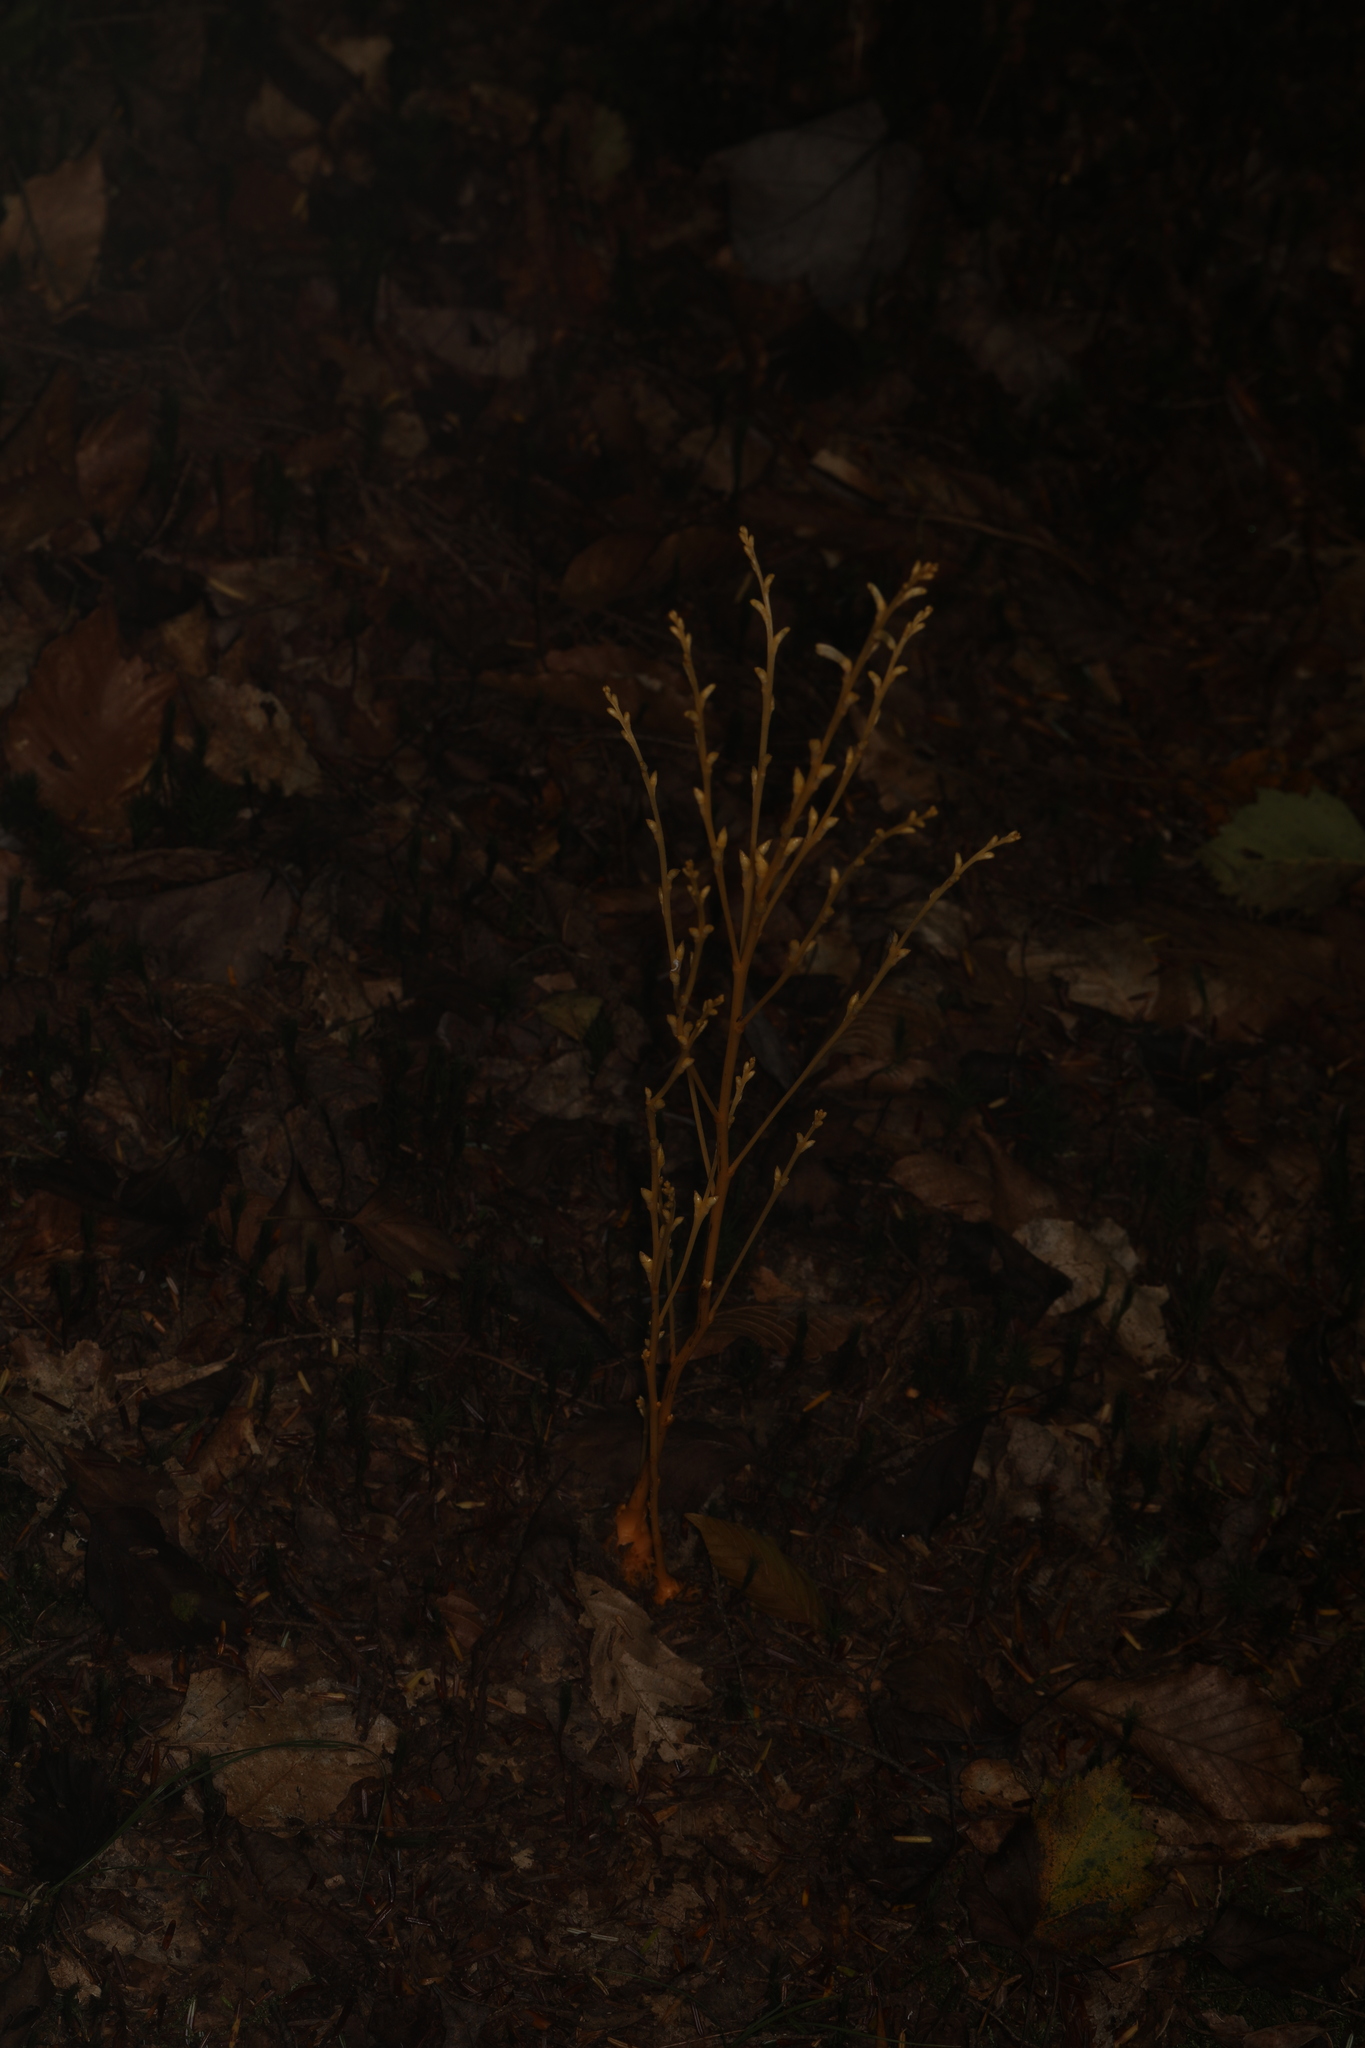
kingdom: Plantae
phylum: Tracheophyta
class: Magnoliopsida
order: Lamiales
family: Orobanchaceae
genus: Epifagus
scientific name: Epifagus virginiana
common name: Beechdrops
